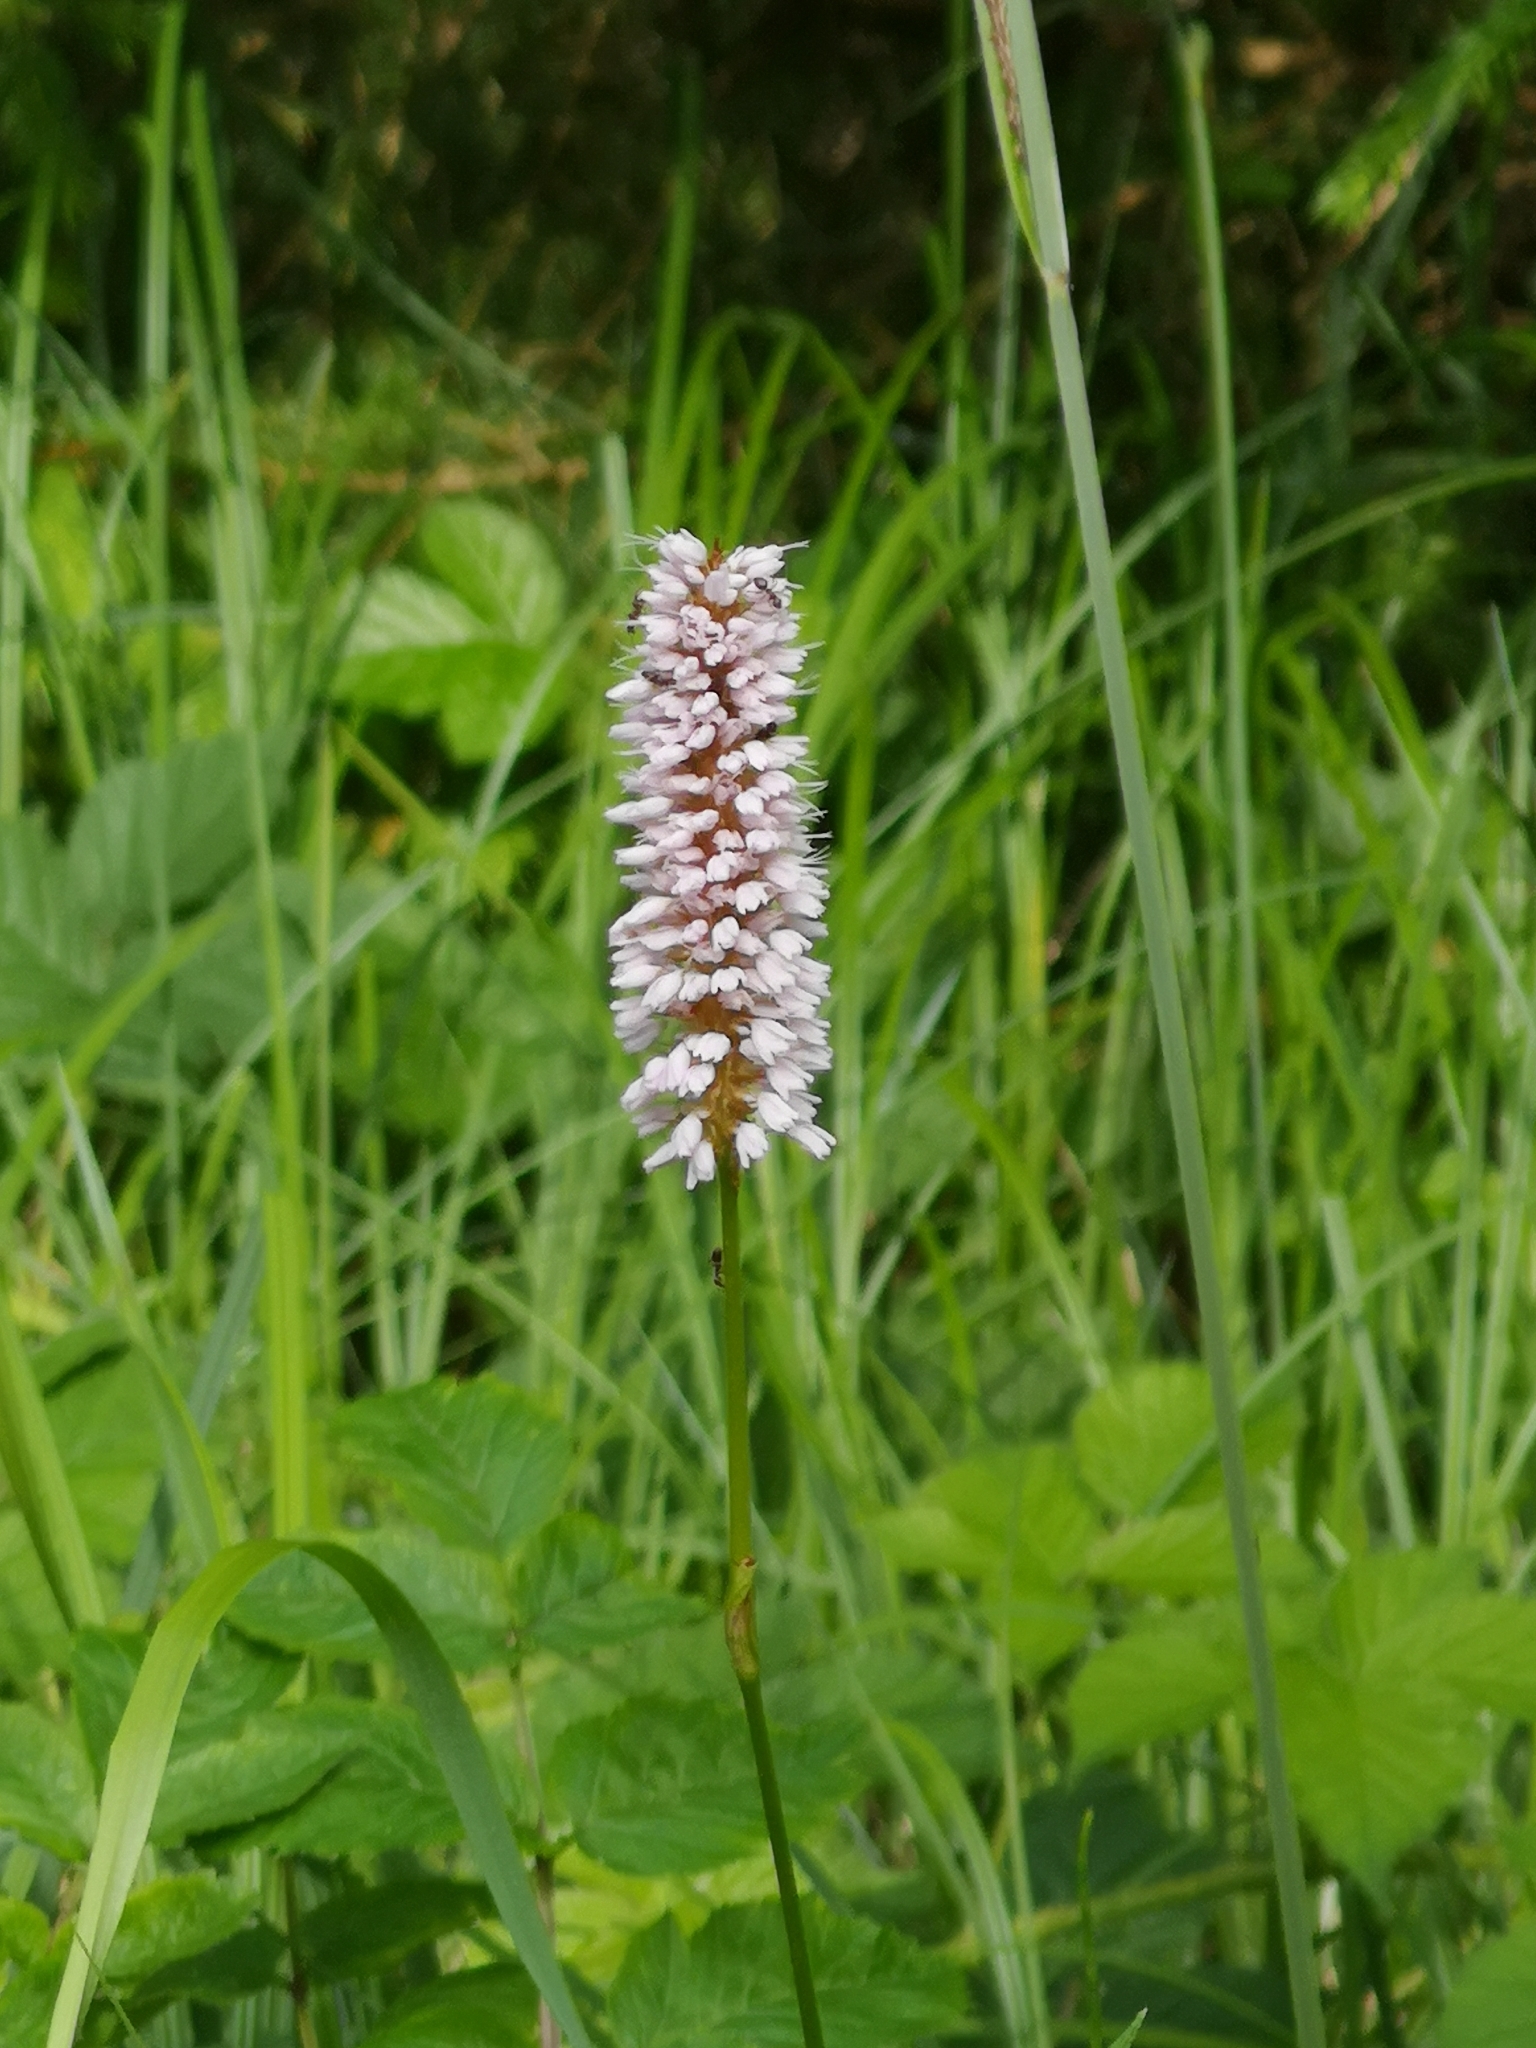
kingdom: Plantae
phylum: Tracheophyta
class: Magnoliopsida
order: Caryophyllales
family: Polygonaceae
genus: Bistorta
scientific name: Bistorta officinalis
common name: Common bistort
